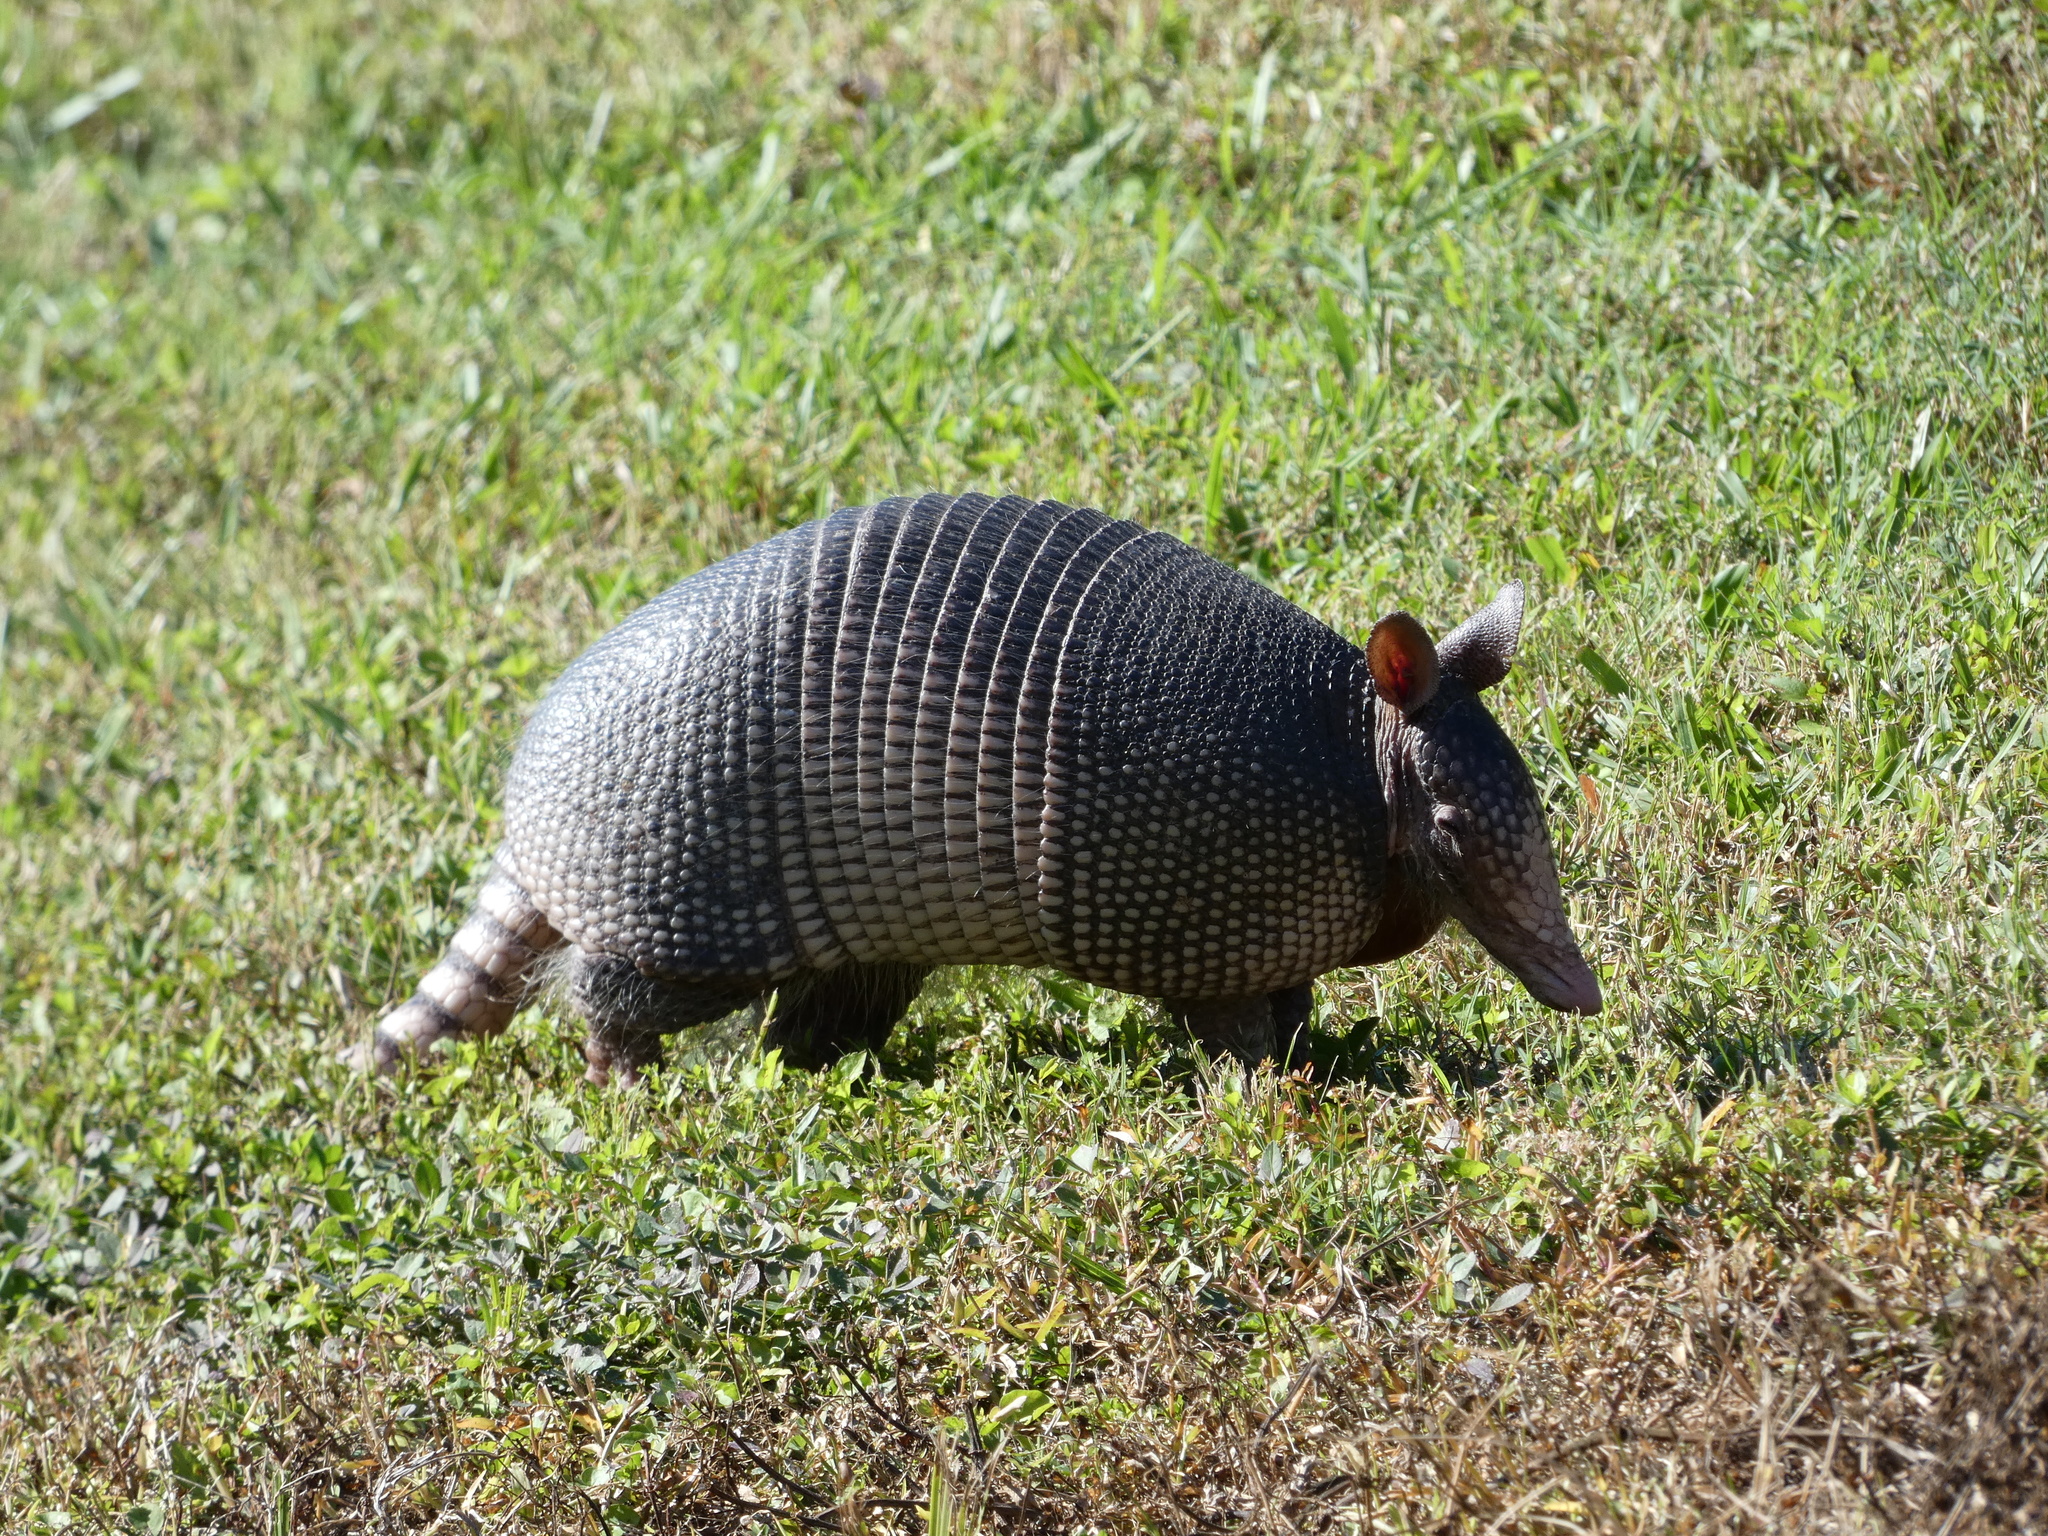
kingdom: Animalia
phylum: Chordata
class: Mammalia
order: Cingulata
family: Dasypodidae
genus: Dasypus
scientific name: Dasypus novemcinctus
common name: Nine-banded armadillo
